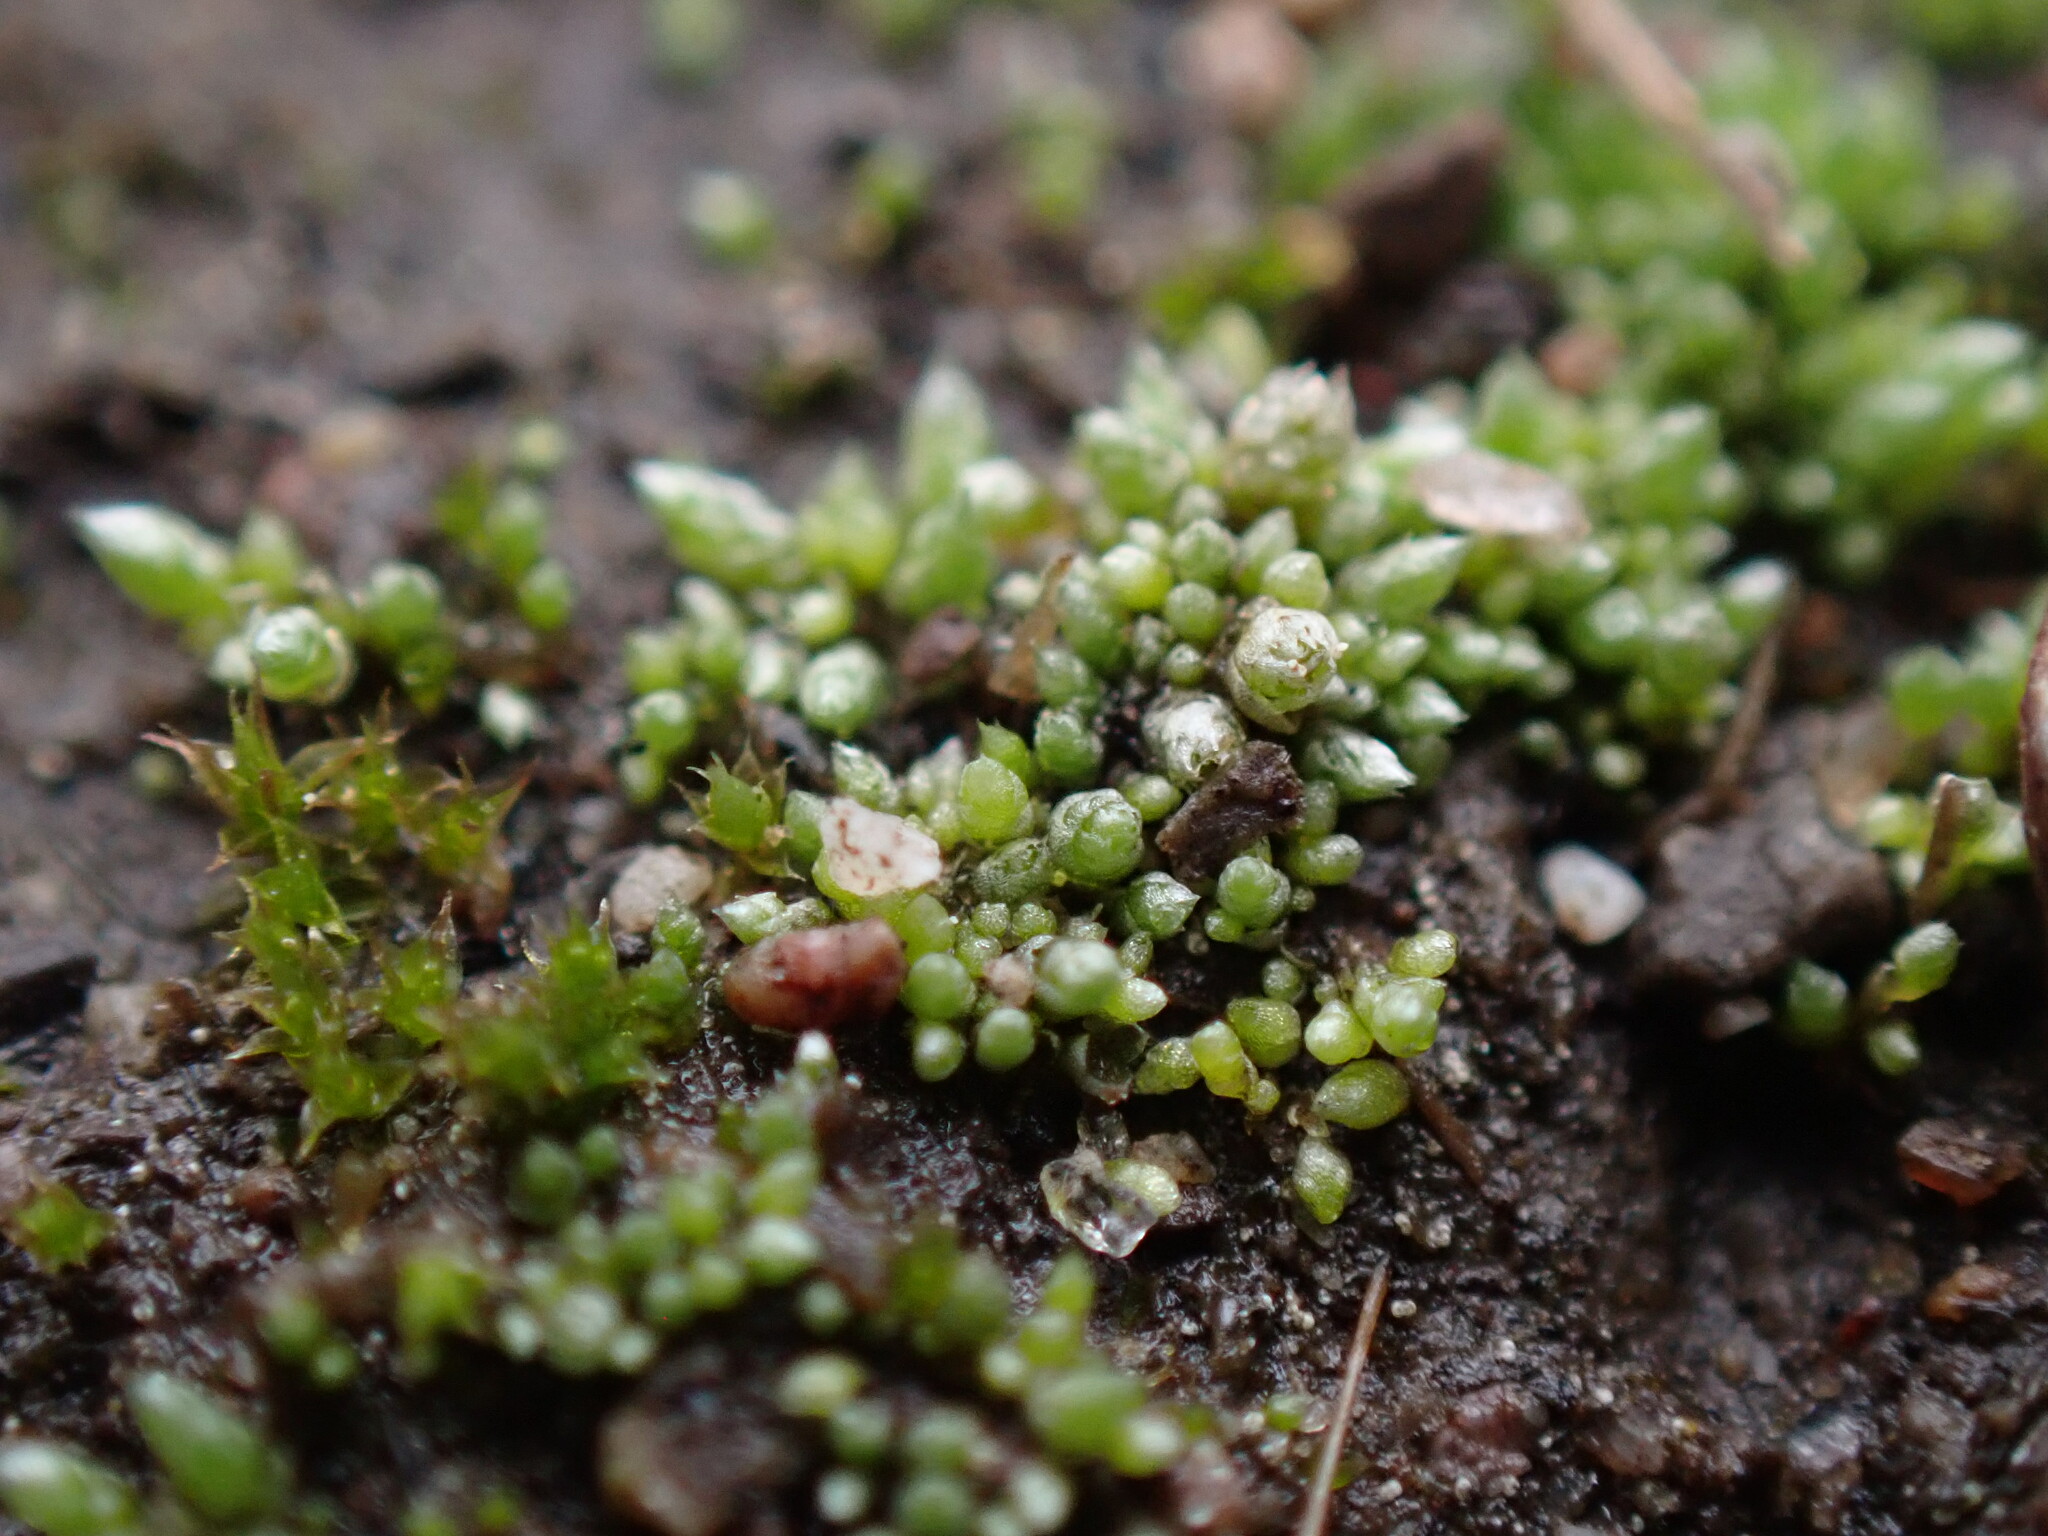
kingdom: Plantae
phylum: Bryophyta
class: Bryopsida
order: Bryales
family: Bryaceae
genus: Bryum
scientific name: Bryum argenteum
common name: Silver-moss
